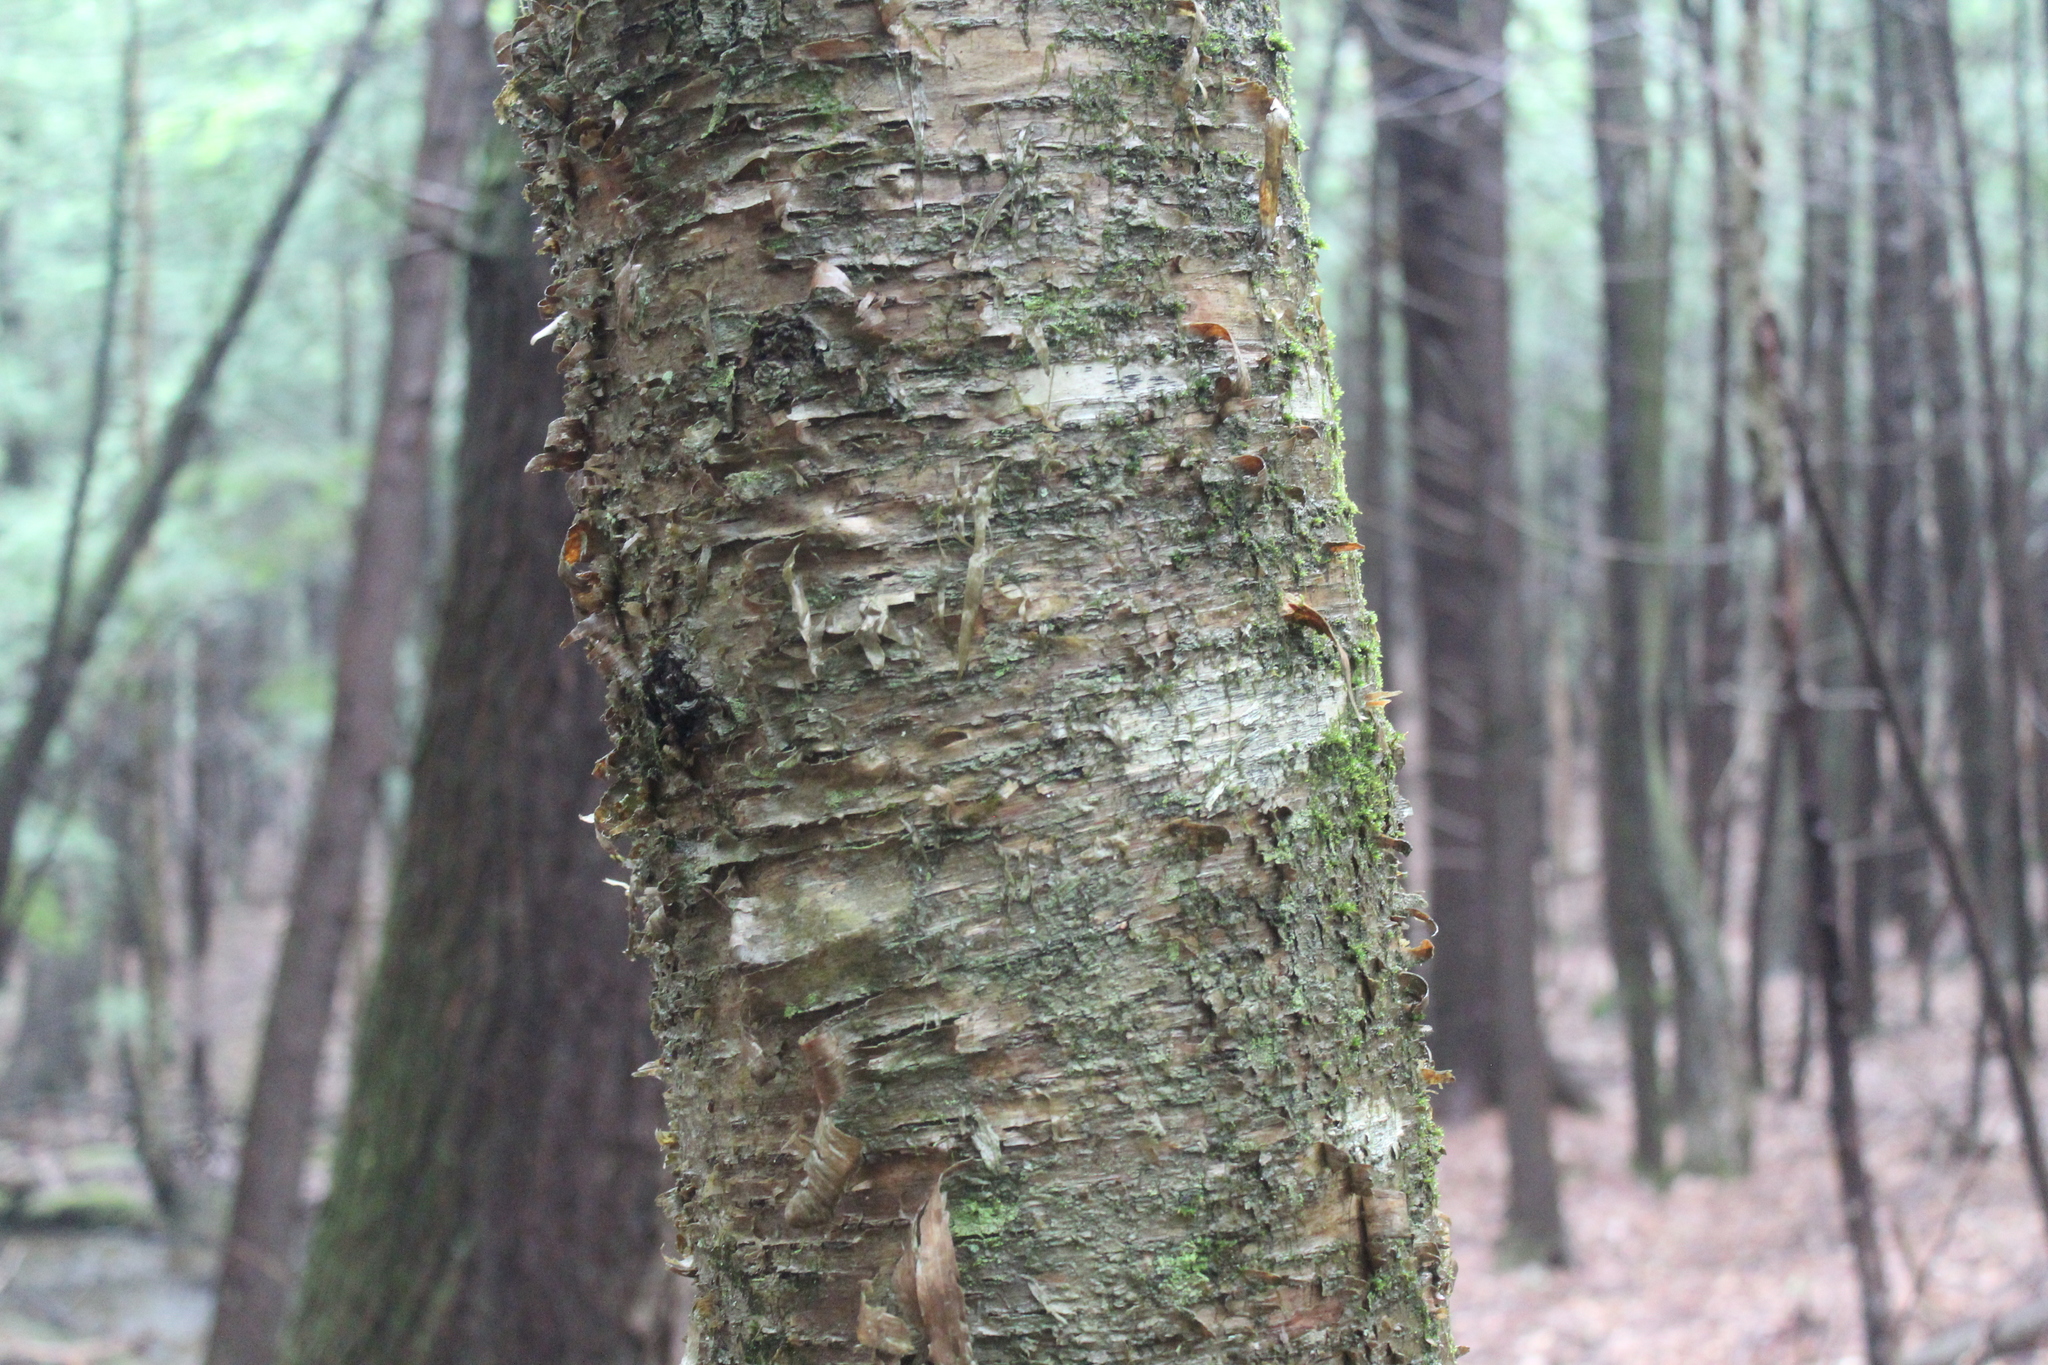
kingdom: Plantae
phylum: Tracheophyta
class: Magnoliopsida
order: Fagales
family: Betulaceae
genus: Betula
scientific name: Betula alleghaniensis
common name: Yellow birch
